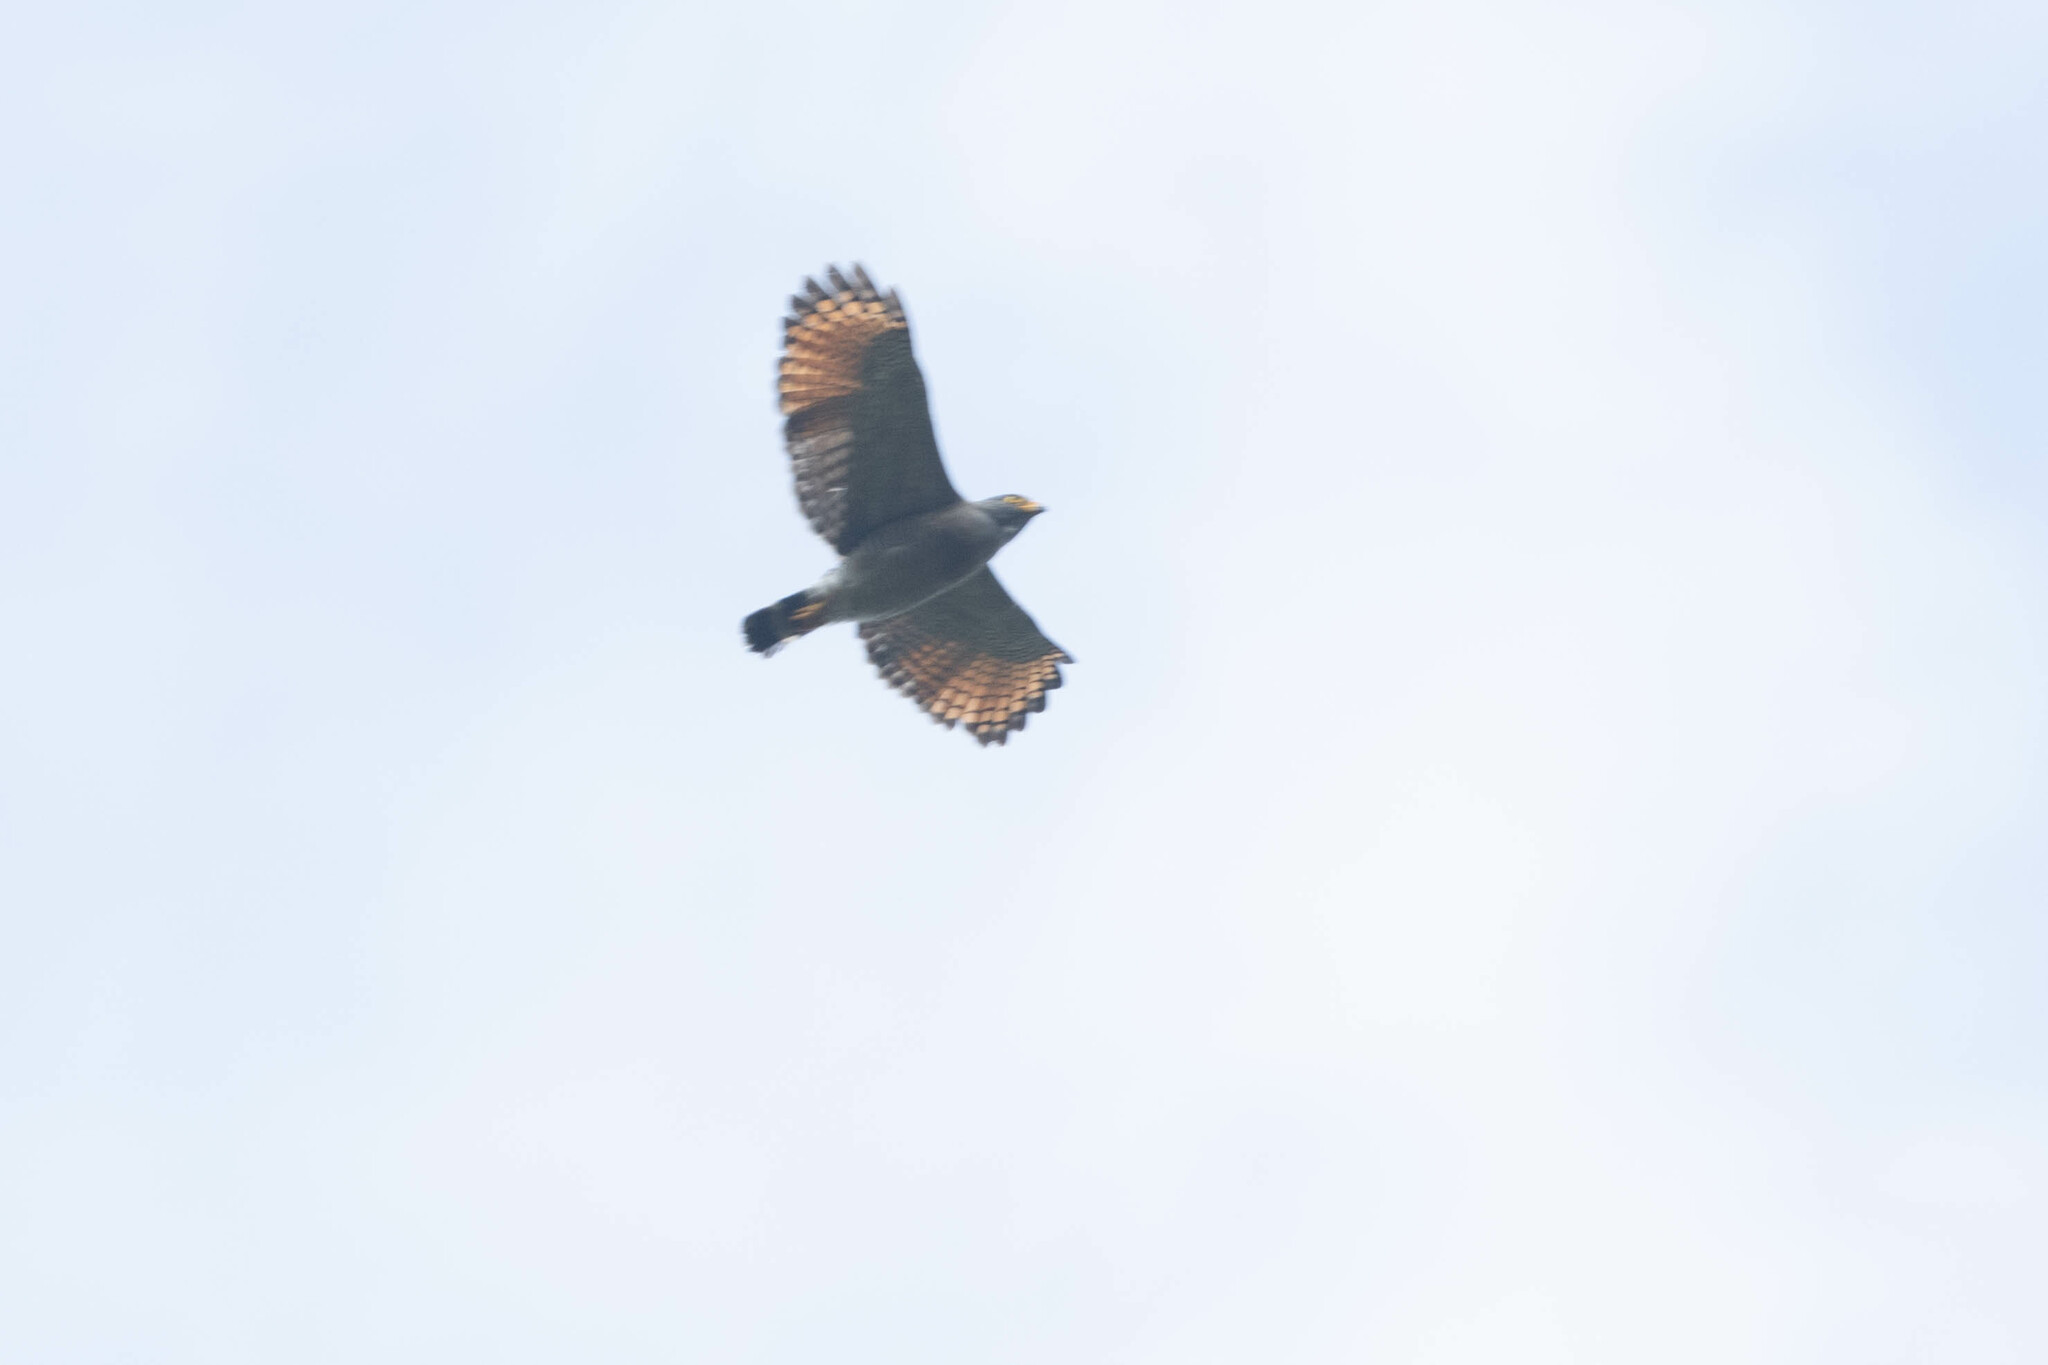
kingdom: Animalia
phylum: Chordata
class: Aves
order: Accipitriformes
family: Accipitridae
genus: Rupornis
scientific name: Rupornis magnirostris
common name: Roadside hawk
